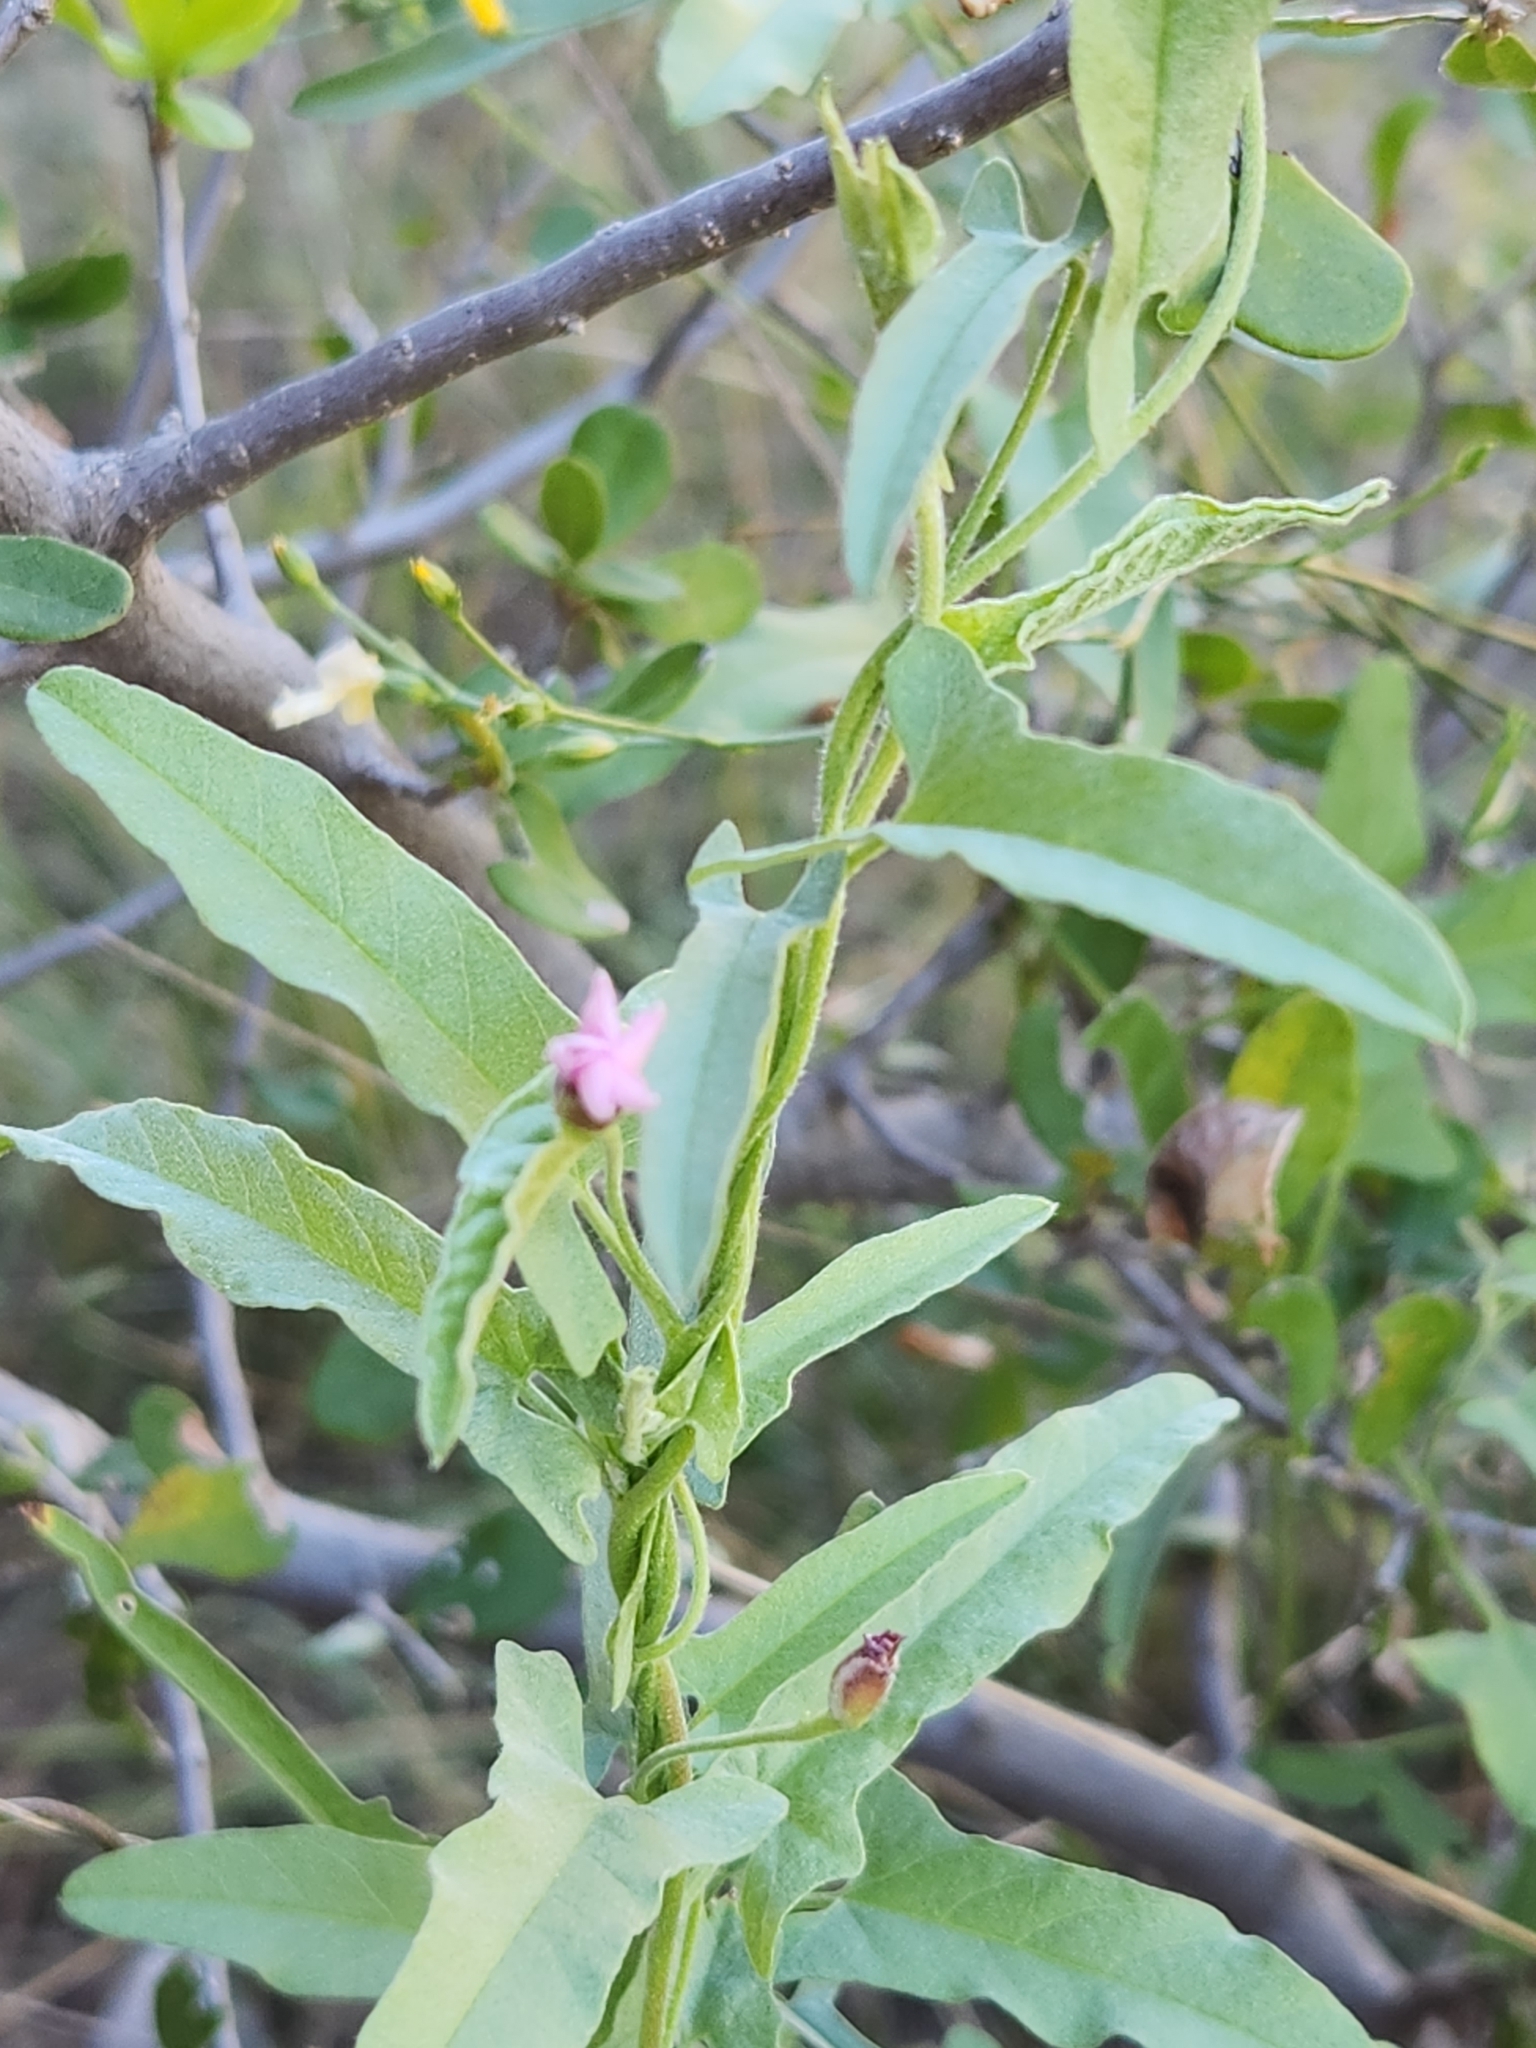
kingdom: Plantae
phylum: Tracheophyta
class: Magnoliopsida
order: Solanales
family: Convolvulaceae
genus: Convolvulus
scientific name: Convolvulus equitans
